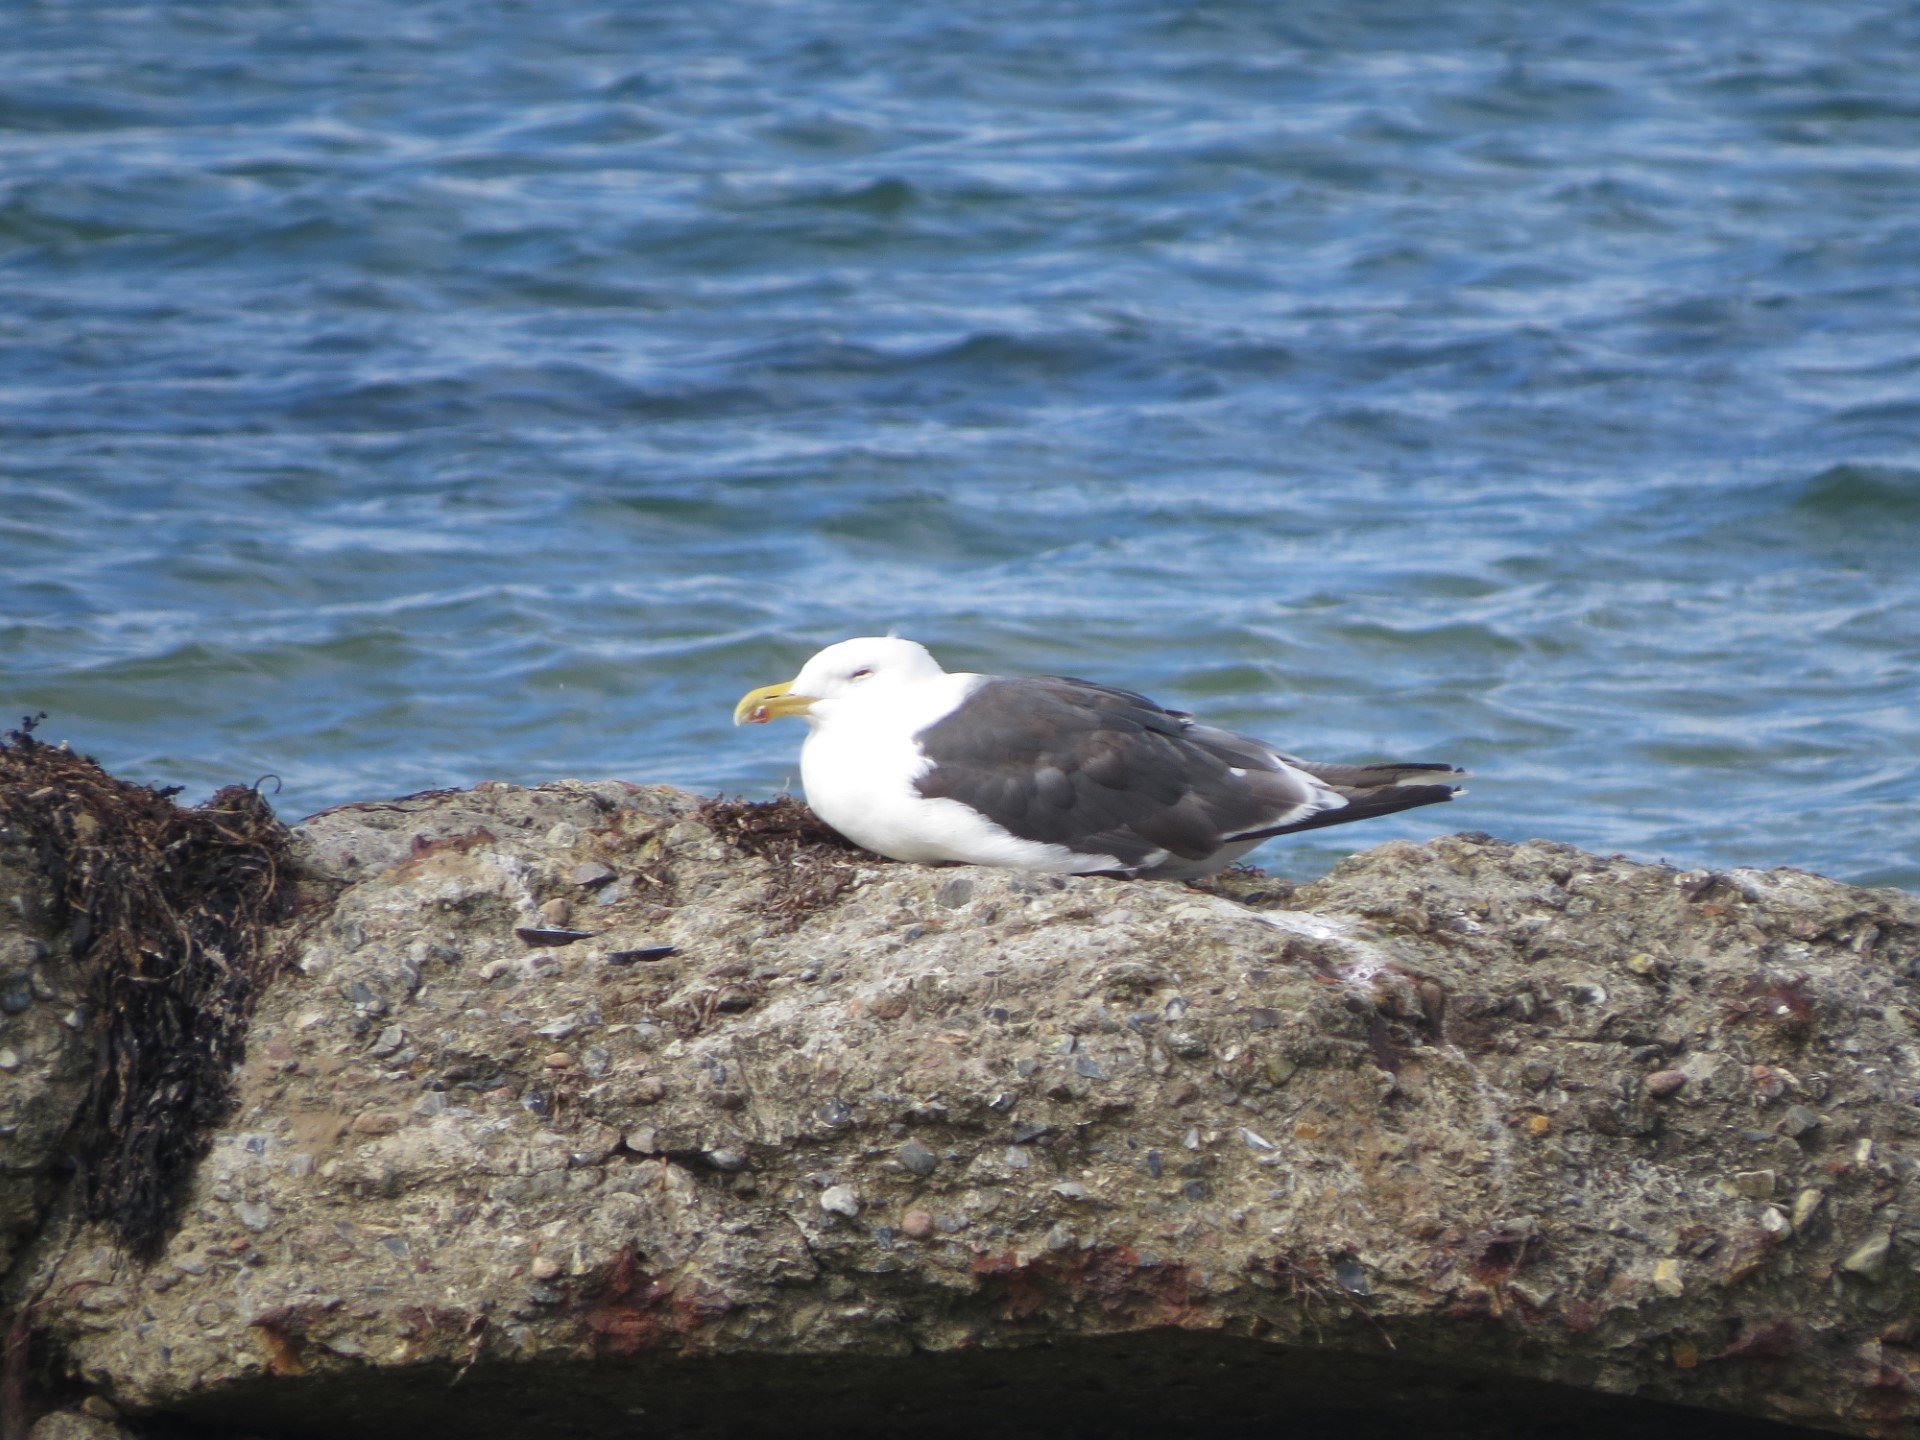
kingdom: Animalia
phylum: Chordata
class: Aves
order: Charadriiformes
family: Laridae
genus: Larus
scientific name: Larus marinus
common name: Great black-backed gull
